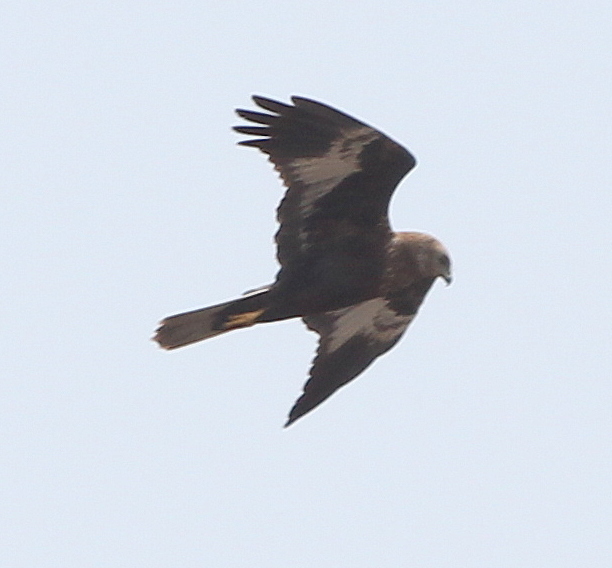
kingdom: Animalia
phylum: Chordata
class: Aves
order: Accipitriformes
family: Accipitridae
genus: Circus
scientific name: Circus aeruginosus
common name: Western marsh harrier
